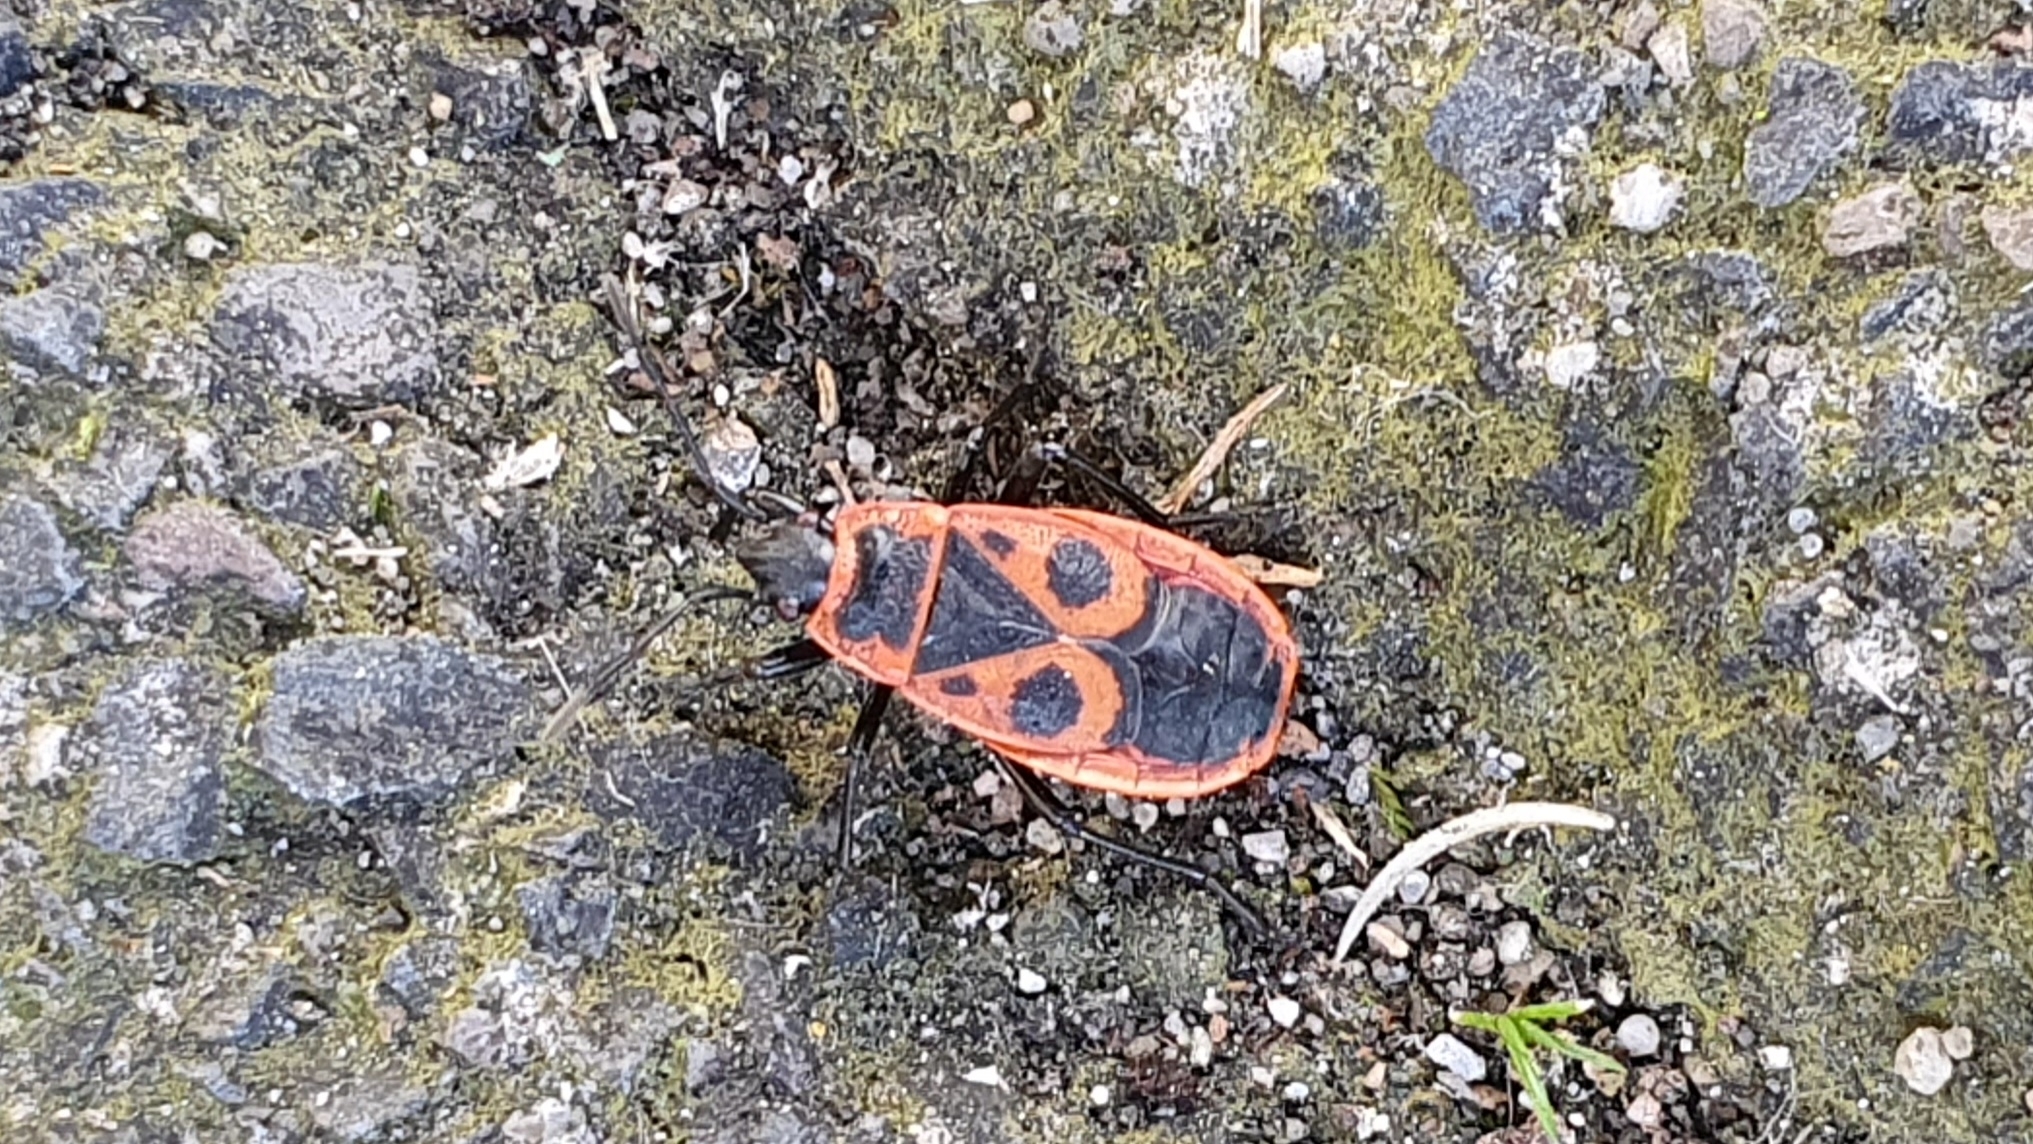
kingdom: Animalia
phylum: Arthropoda
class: Insecta
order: Hemiptera
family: Pyrrhocoridae
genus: Pyrrhocoris
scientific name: Pyrrhocoris apterus
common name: Firebug
